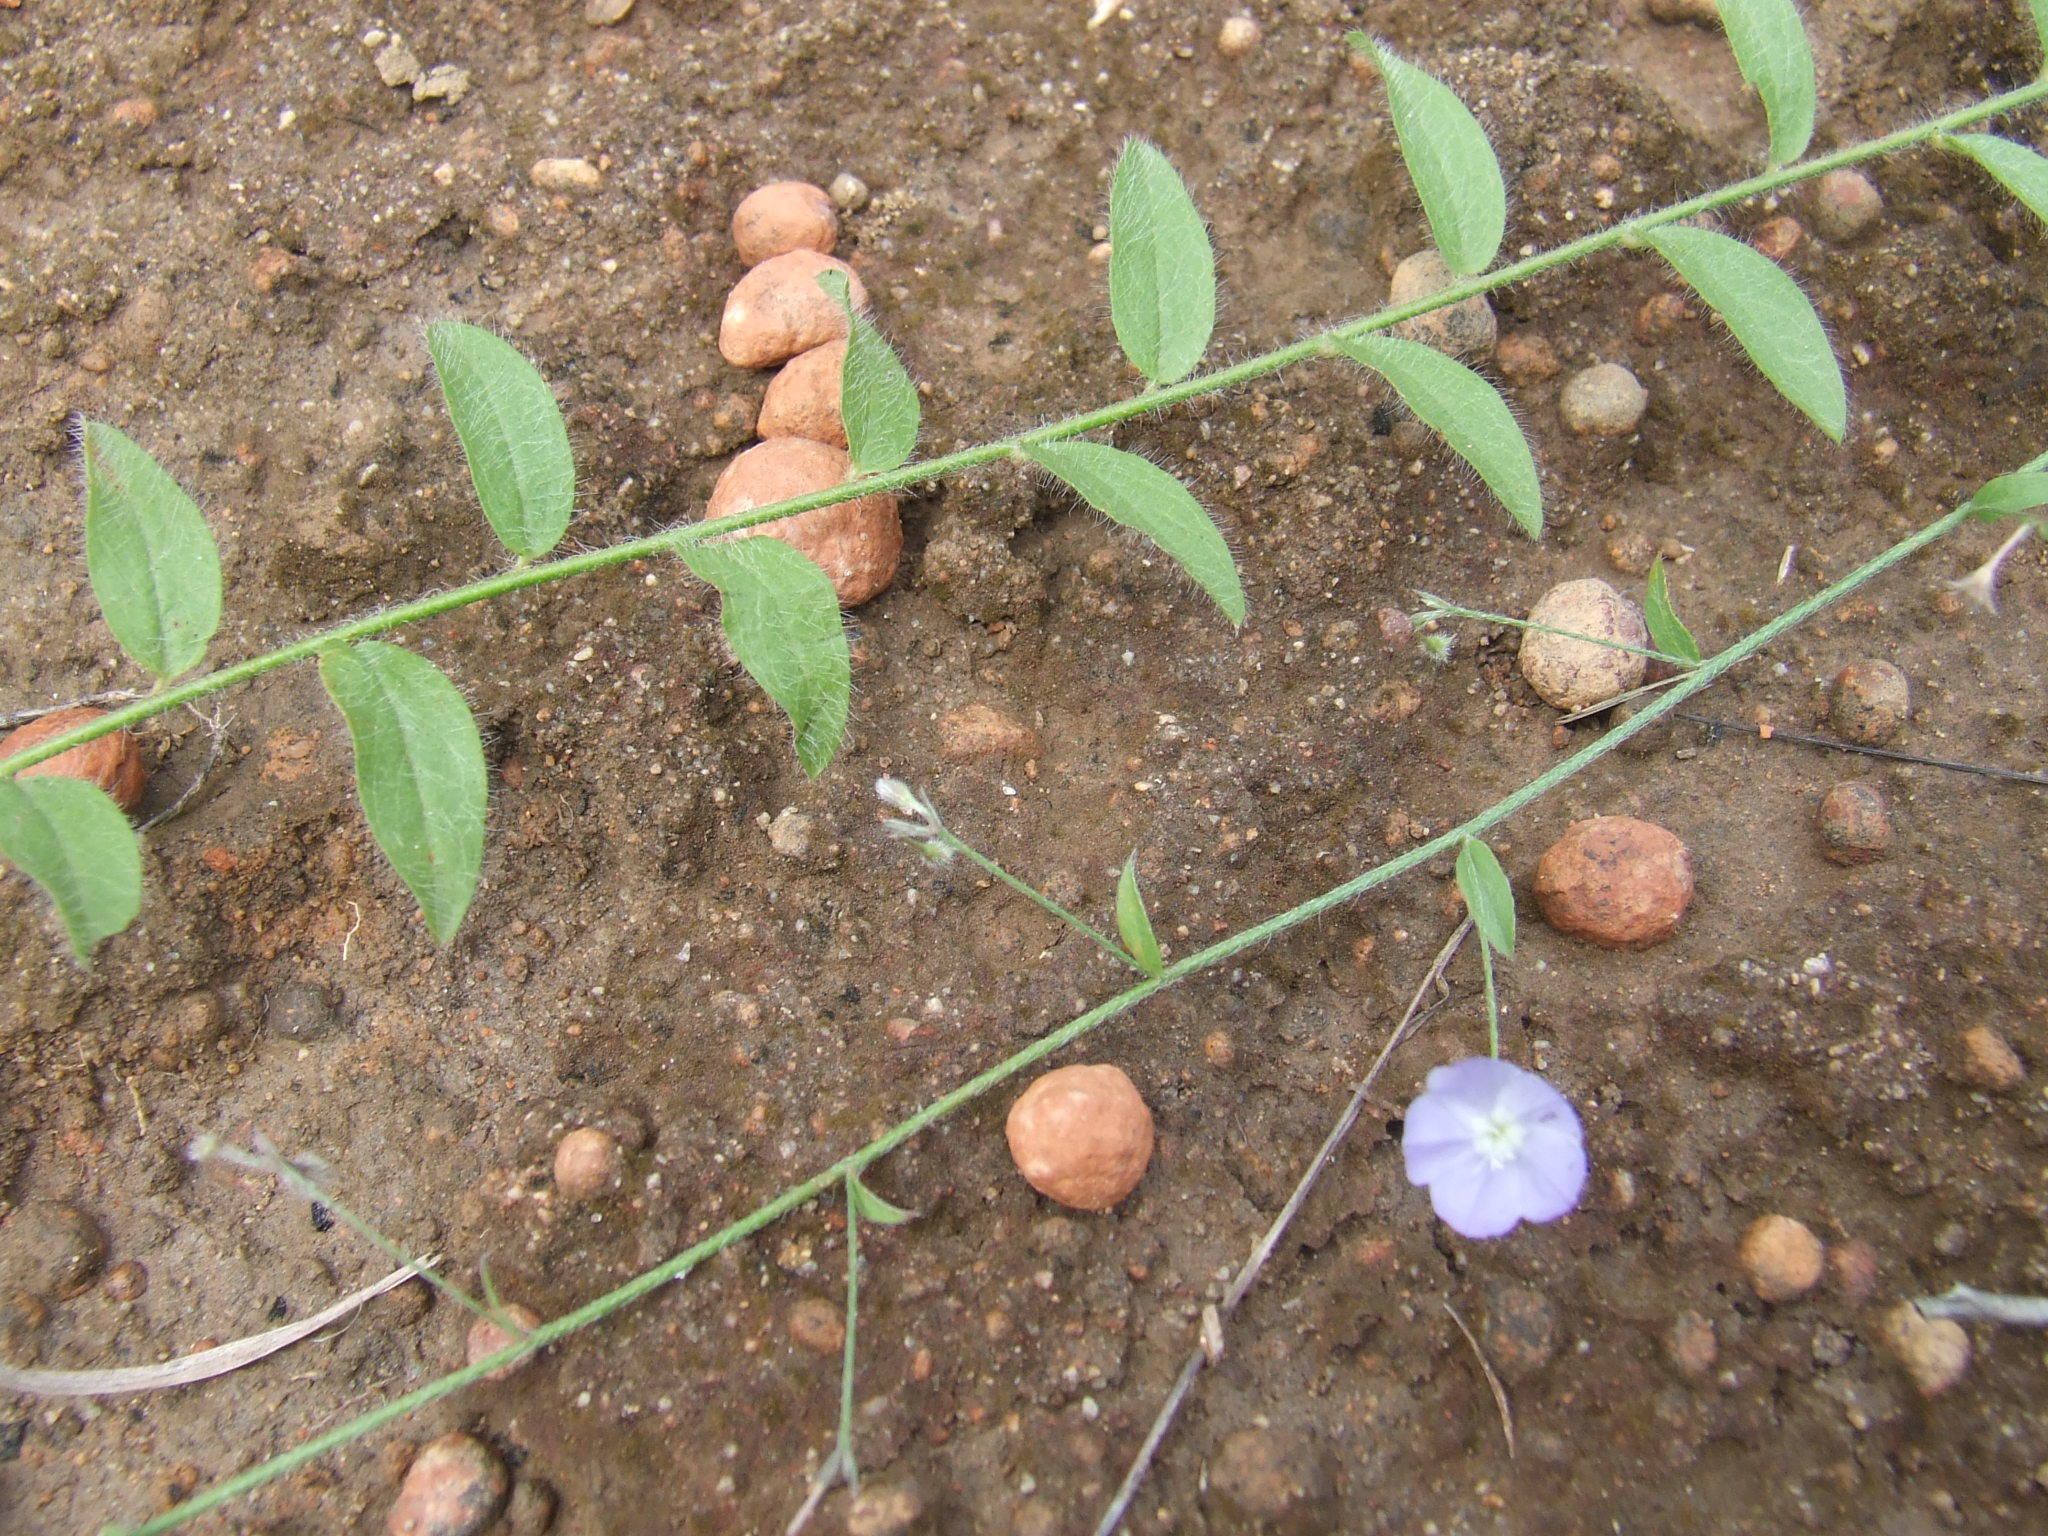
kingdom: Plantae
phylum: Tracheophyta
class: Magnoliopsida
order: Solanales
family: Convolvulaceae
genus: Evolvulus
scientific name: Evolvulus alsinoides
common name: Slender dwarf morning-glory
